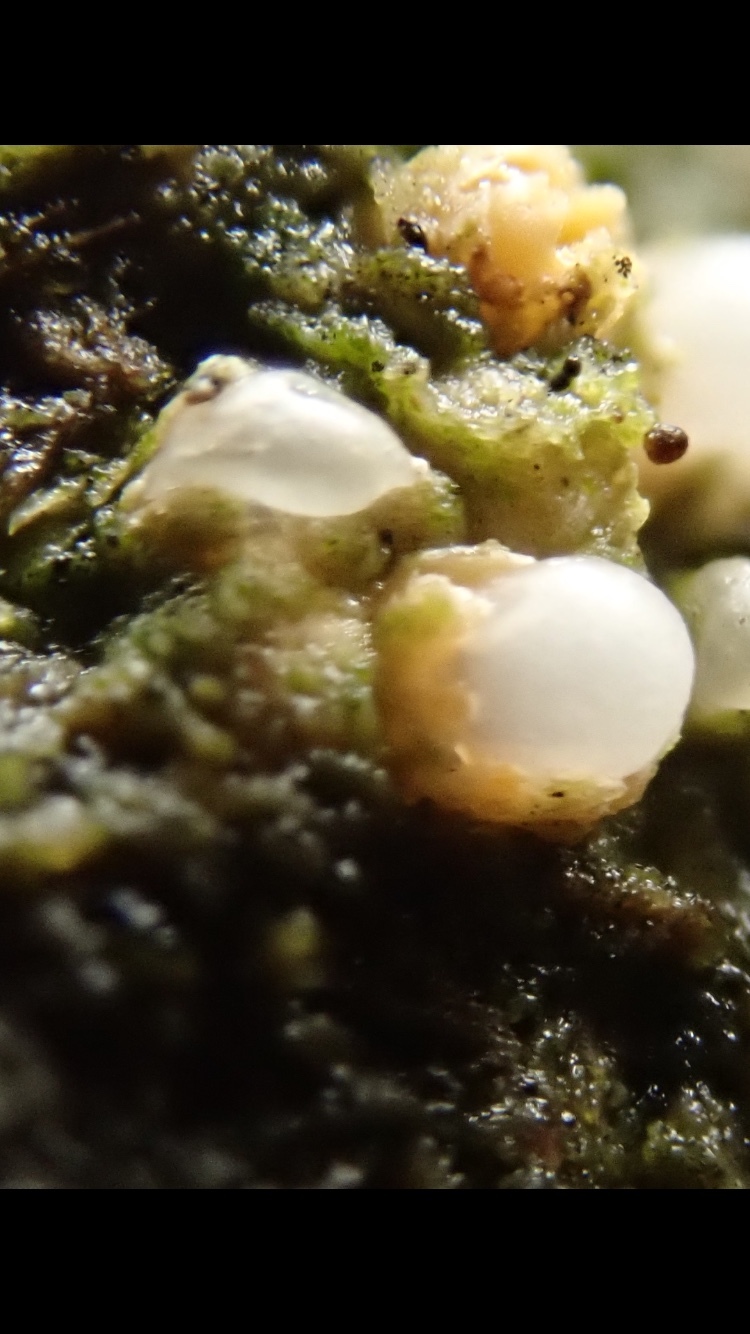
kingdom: Fungi
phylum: Basidiomycota
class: Agaricomycetes
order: Geastrales
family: Geastraceae
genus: Sphaerobolus
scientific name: Sphaerobolus stellatus
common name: Cannon fungus
